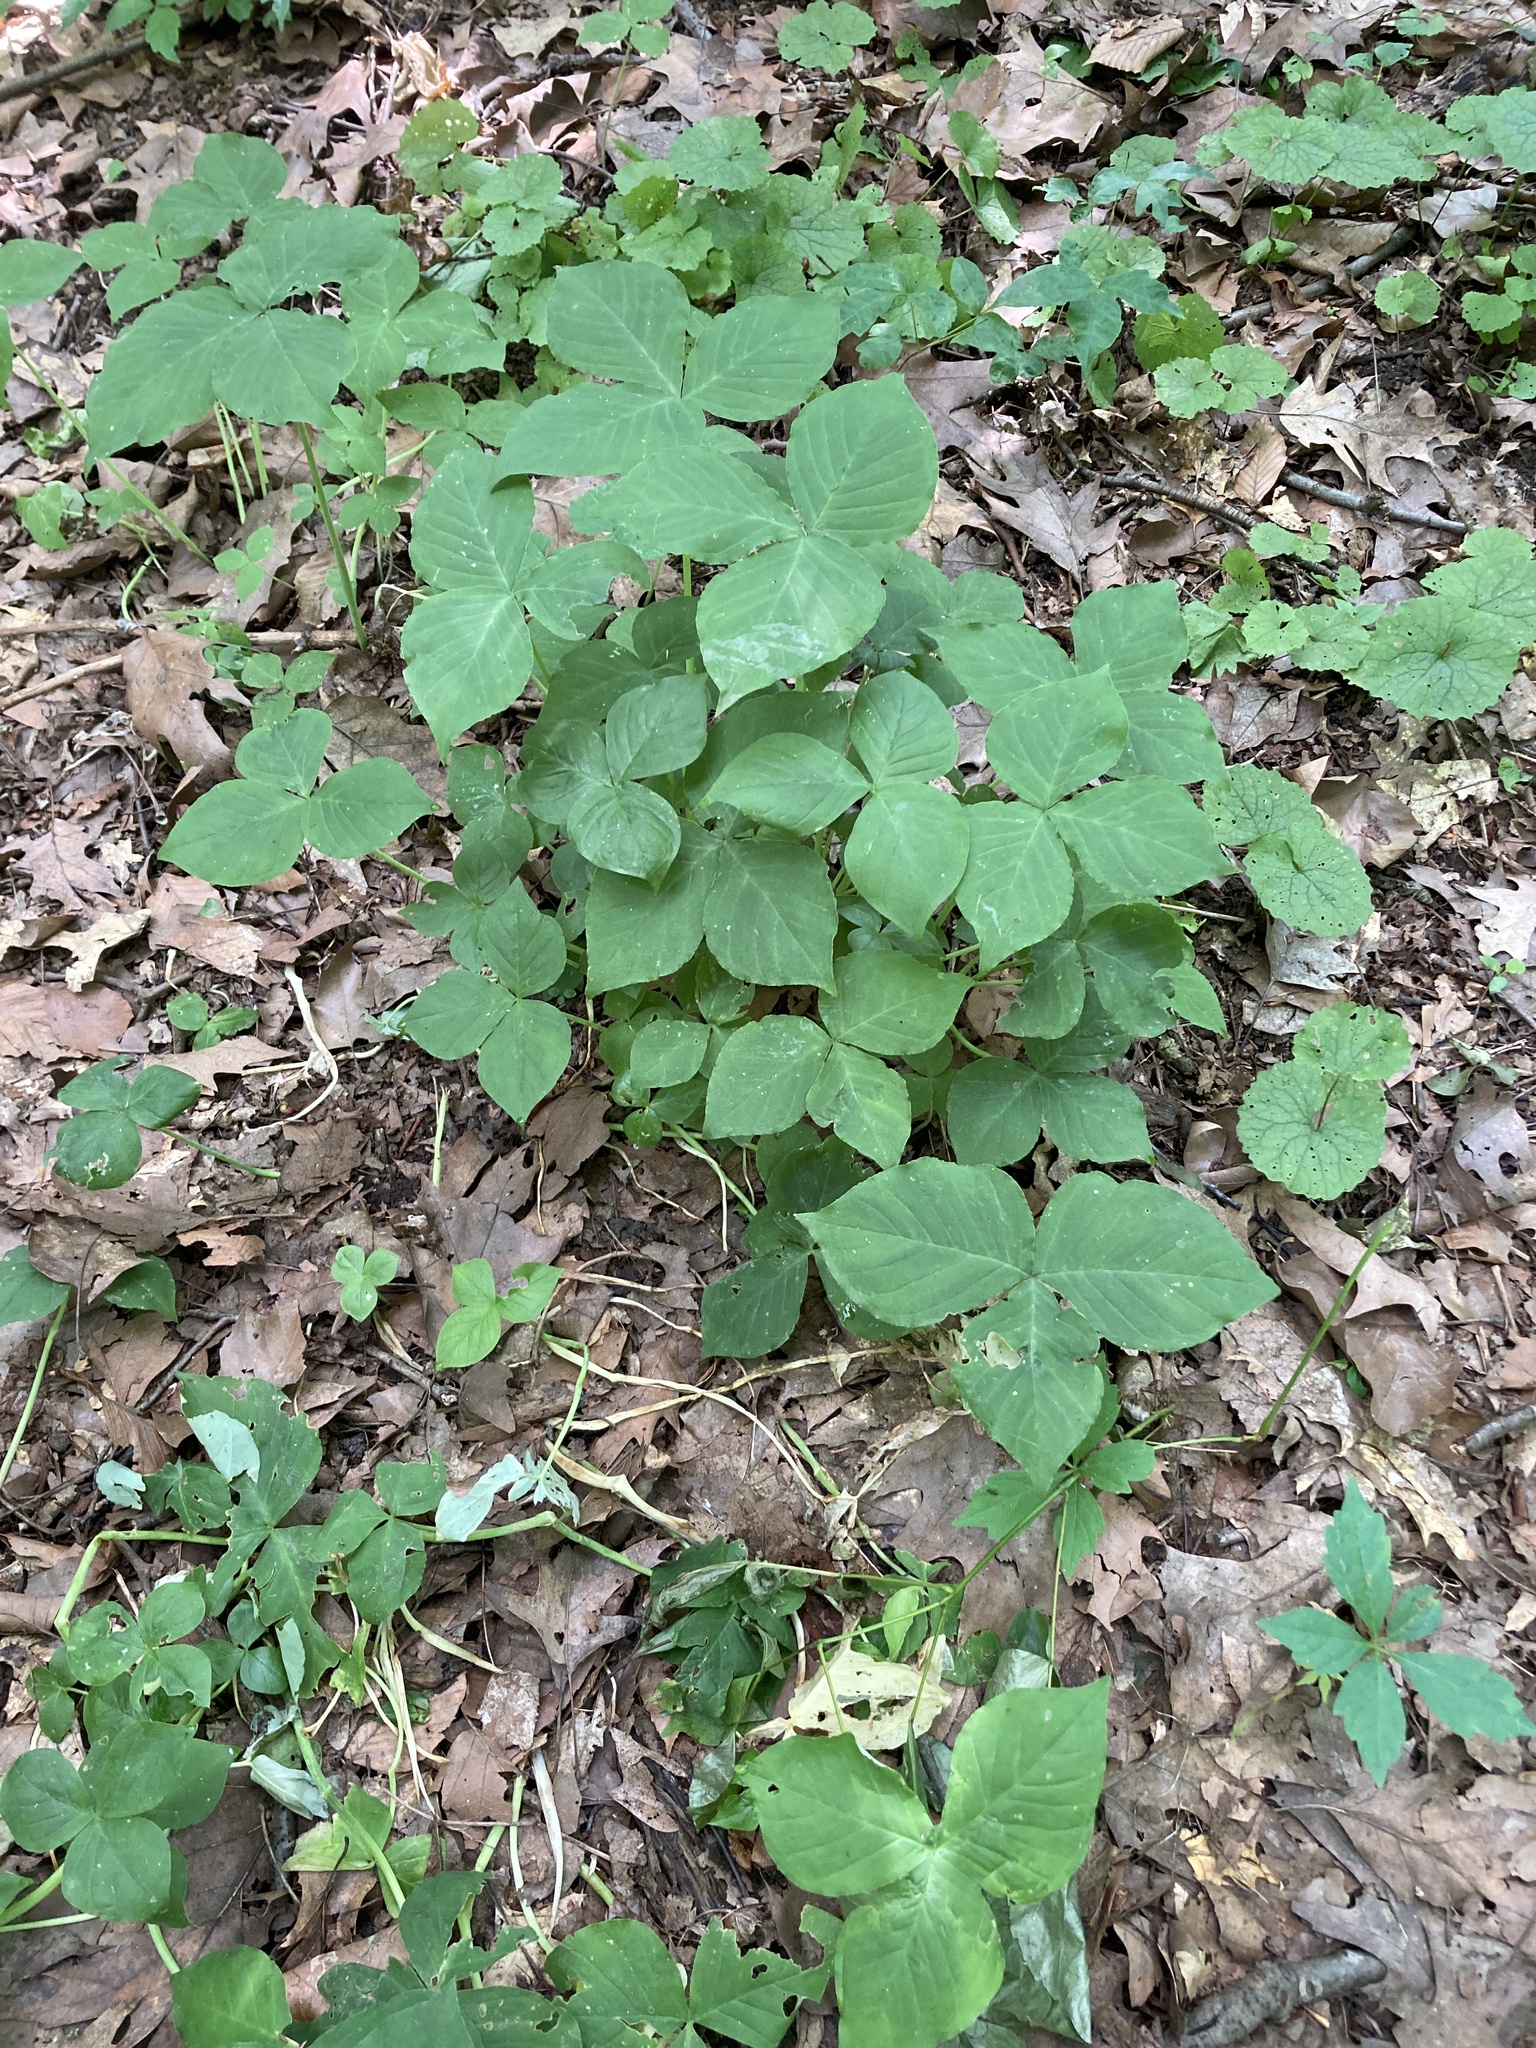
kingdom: Plantae
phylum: Tracheophyta
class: Liliopsida
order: Alismatales
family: Araceae
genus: Arisaema
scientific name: Arisaema triphyllum
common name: Jack-in-the-pulpit
